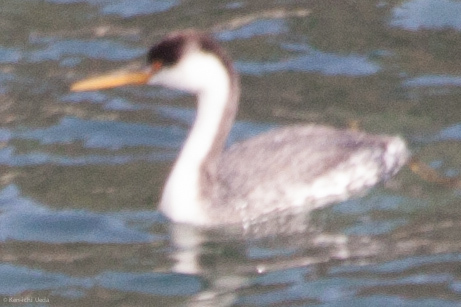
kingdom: Animalia
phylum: Chordata
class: Aves
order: Podicipediformes
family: Podicipedidae
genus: Aechmophorus
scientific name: Aechmophorus occidentalis
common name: Western grebe
